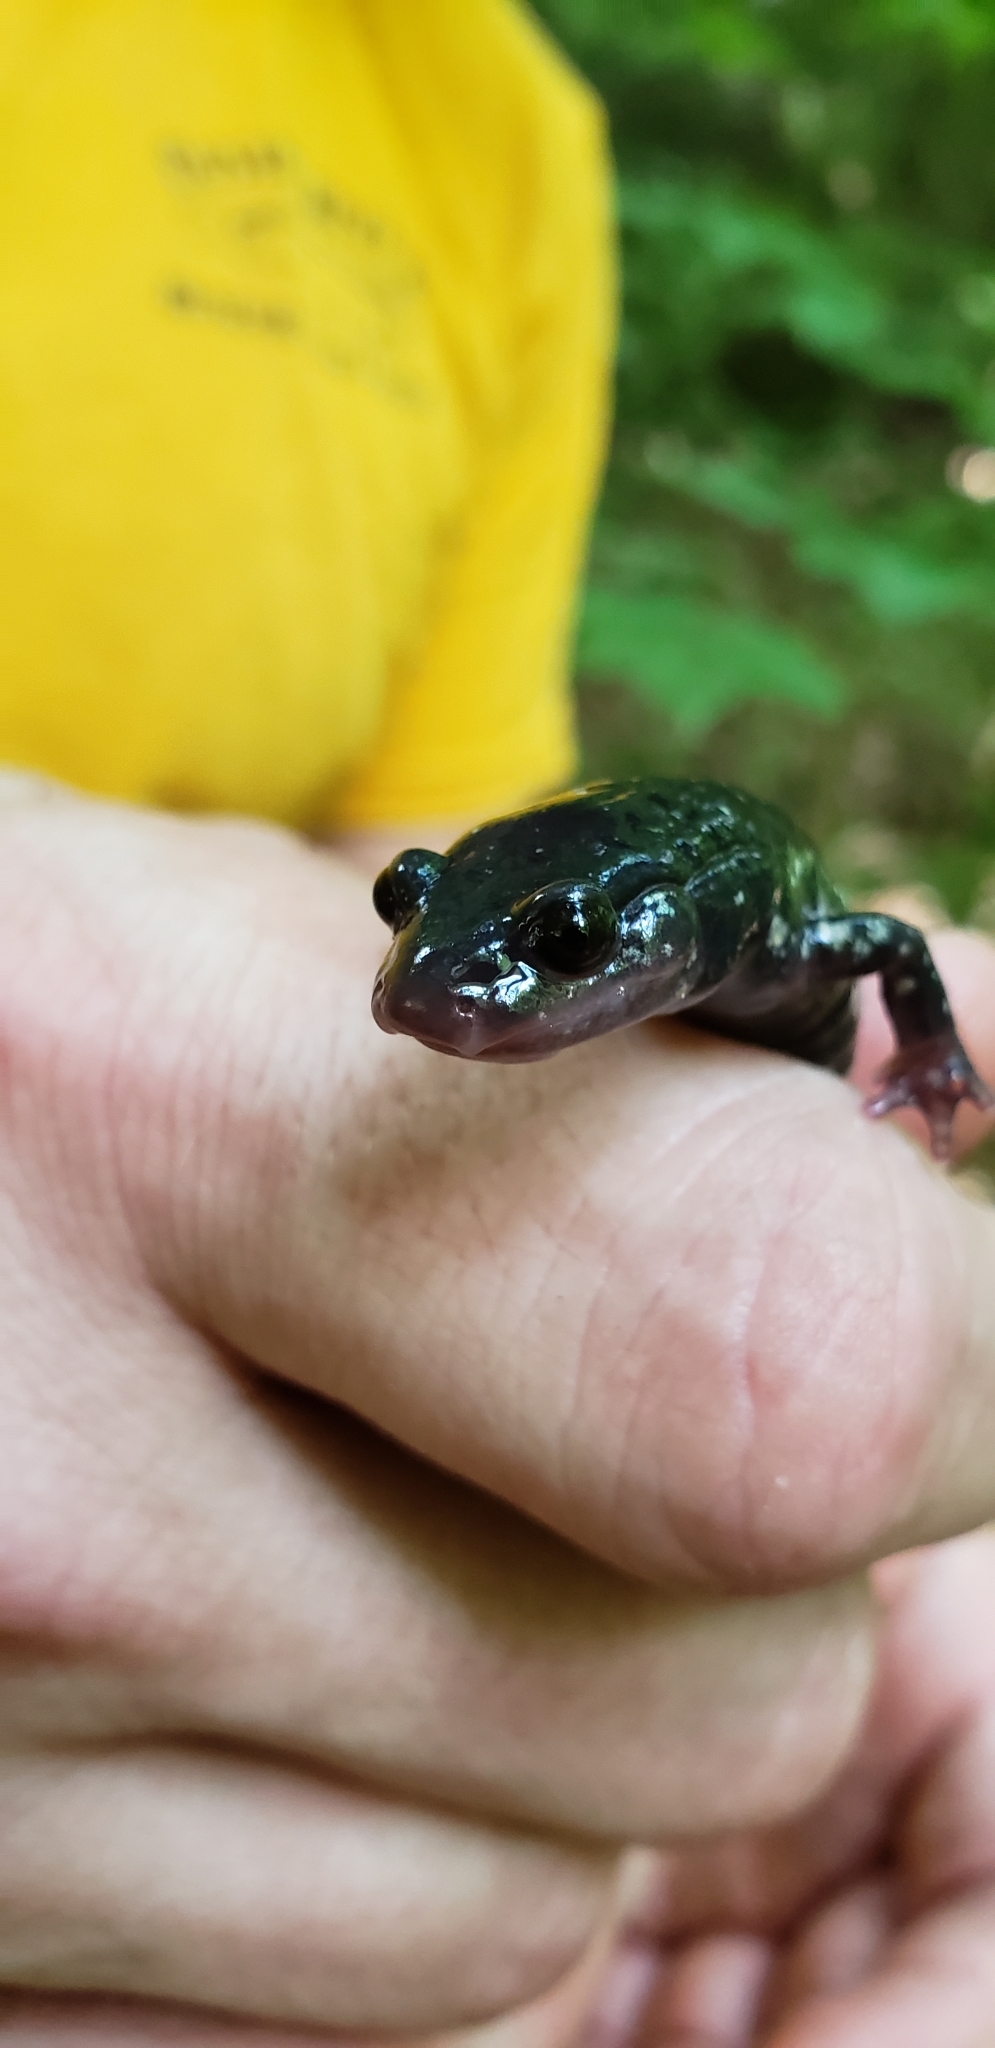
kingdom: Animalia
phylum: Chordata
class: Amphibia
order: Caudata
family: Plethodontidae
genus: Plethodon
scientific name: Plethodon glutinosus
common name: Northern slimy salamander
